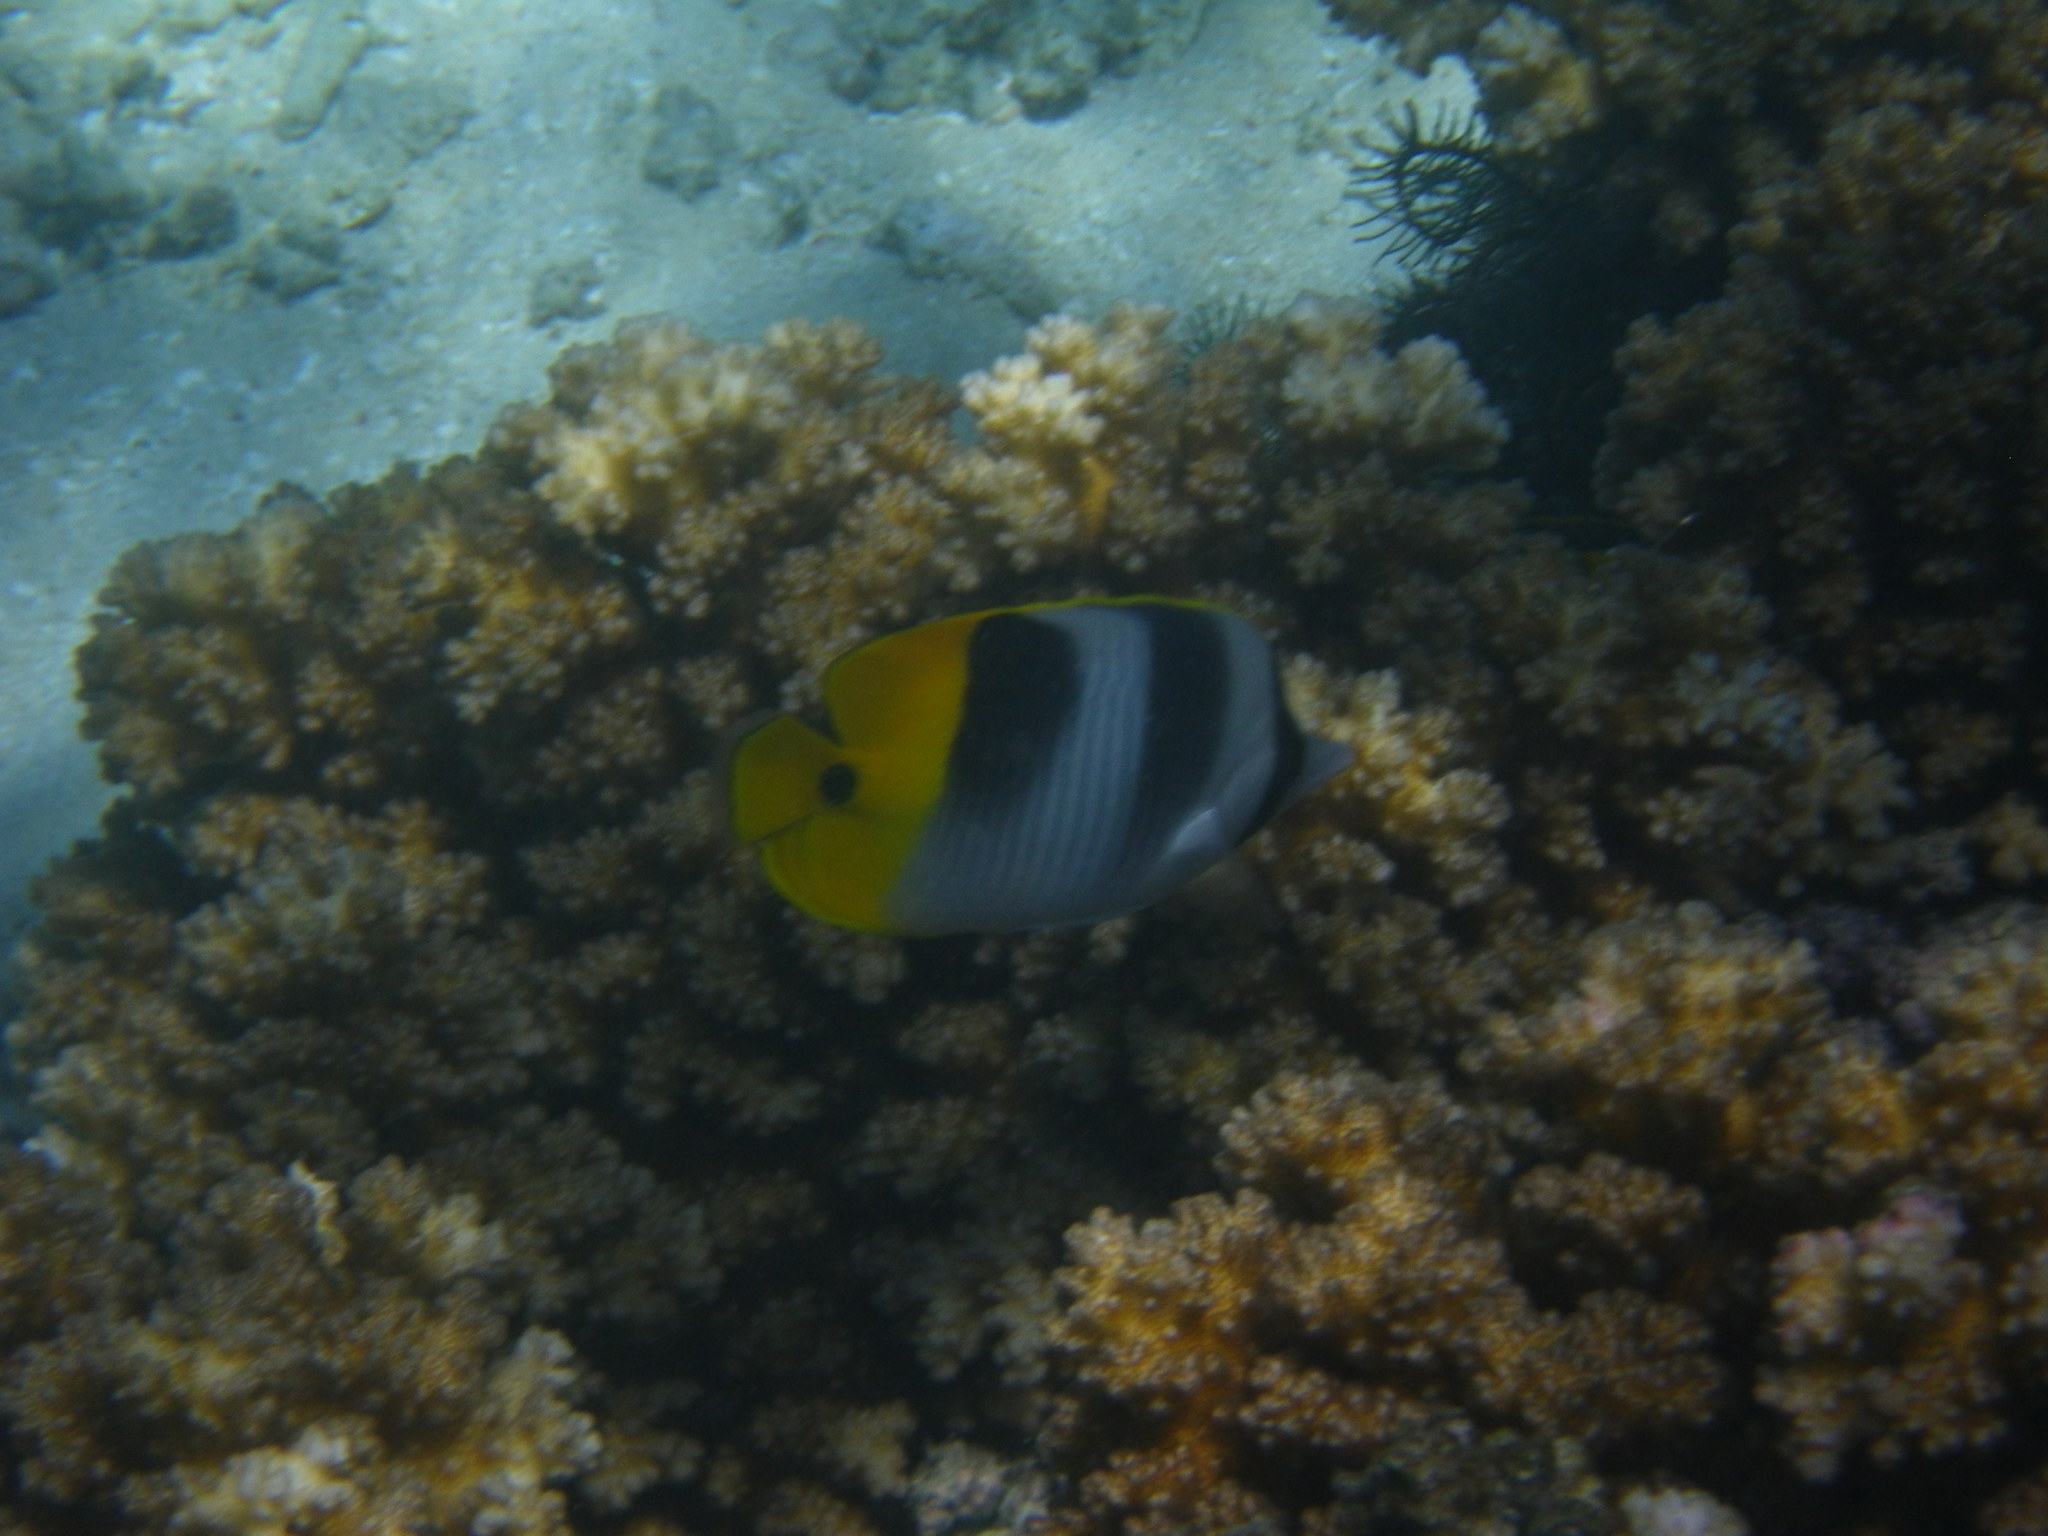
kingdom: Animalia
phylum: Chordata
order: Perciformes
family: Chaetodontidae
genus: Chaetodon
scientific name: Chaetodon ulietensis
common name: Pacific double-saddle butterflyfish
